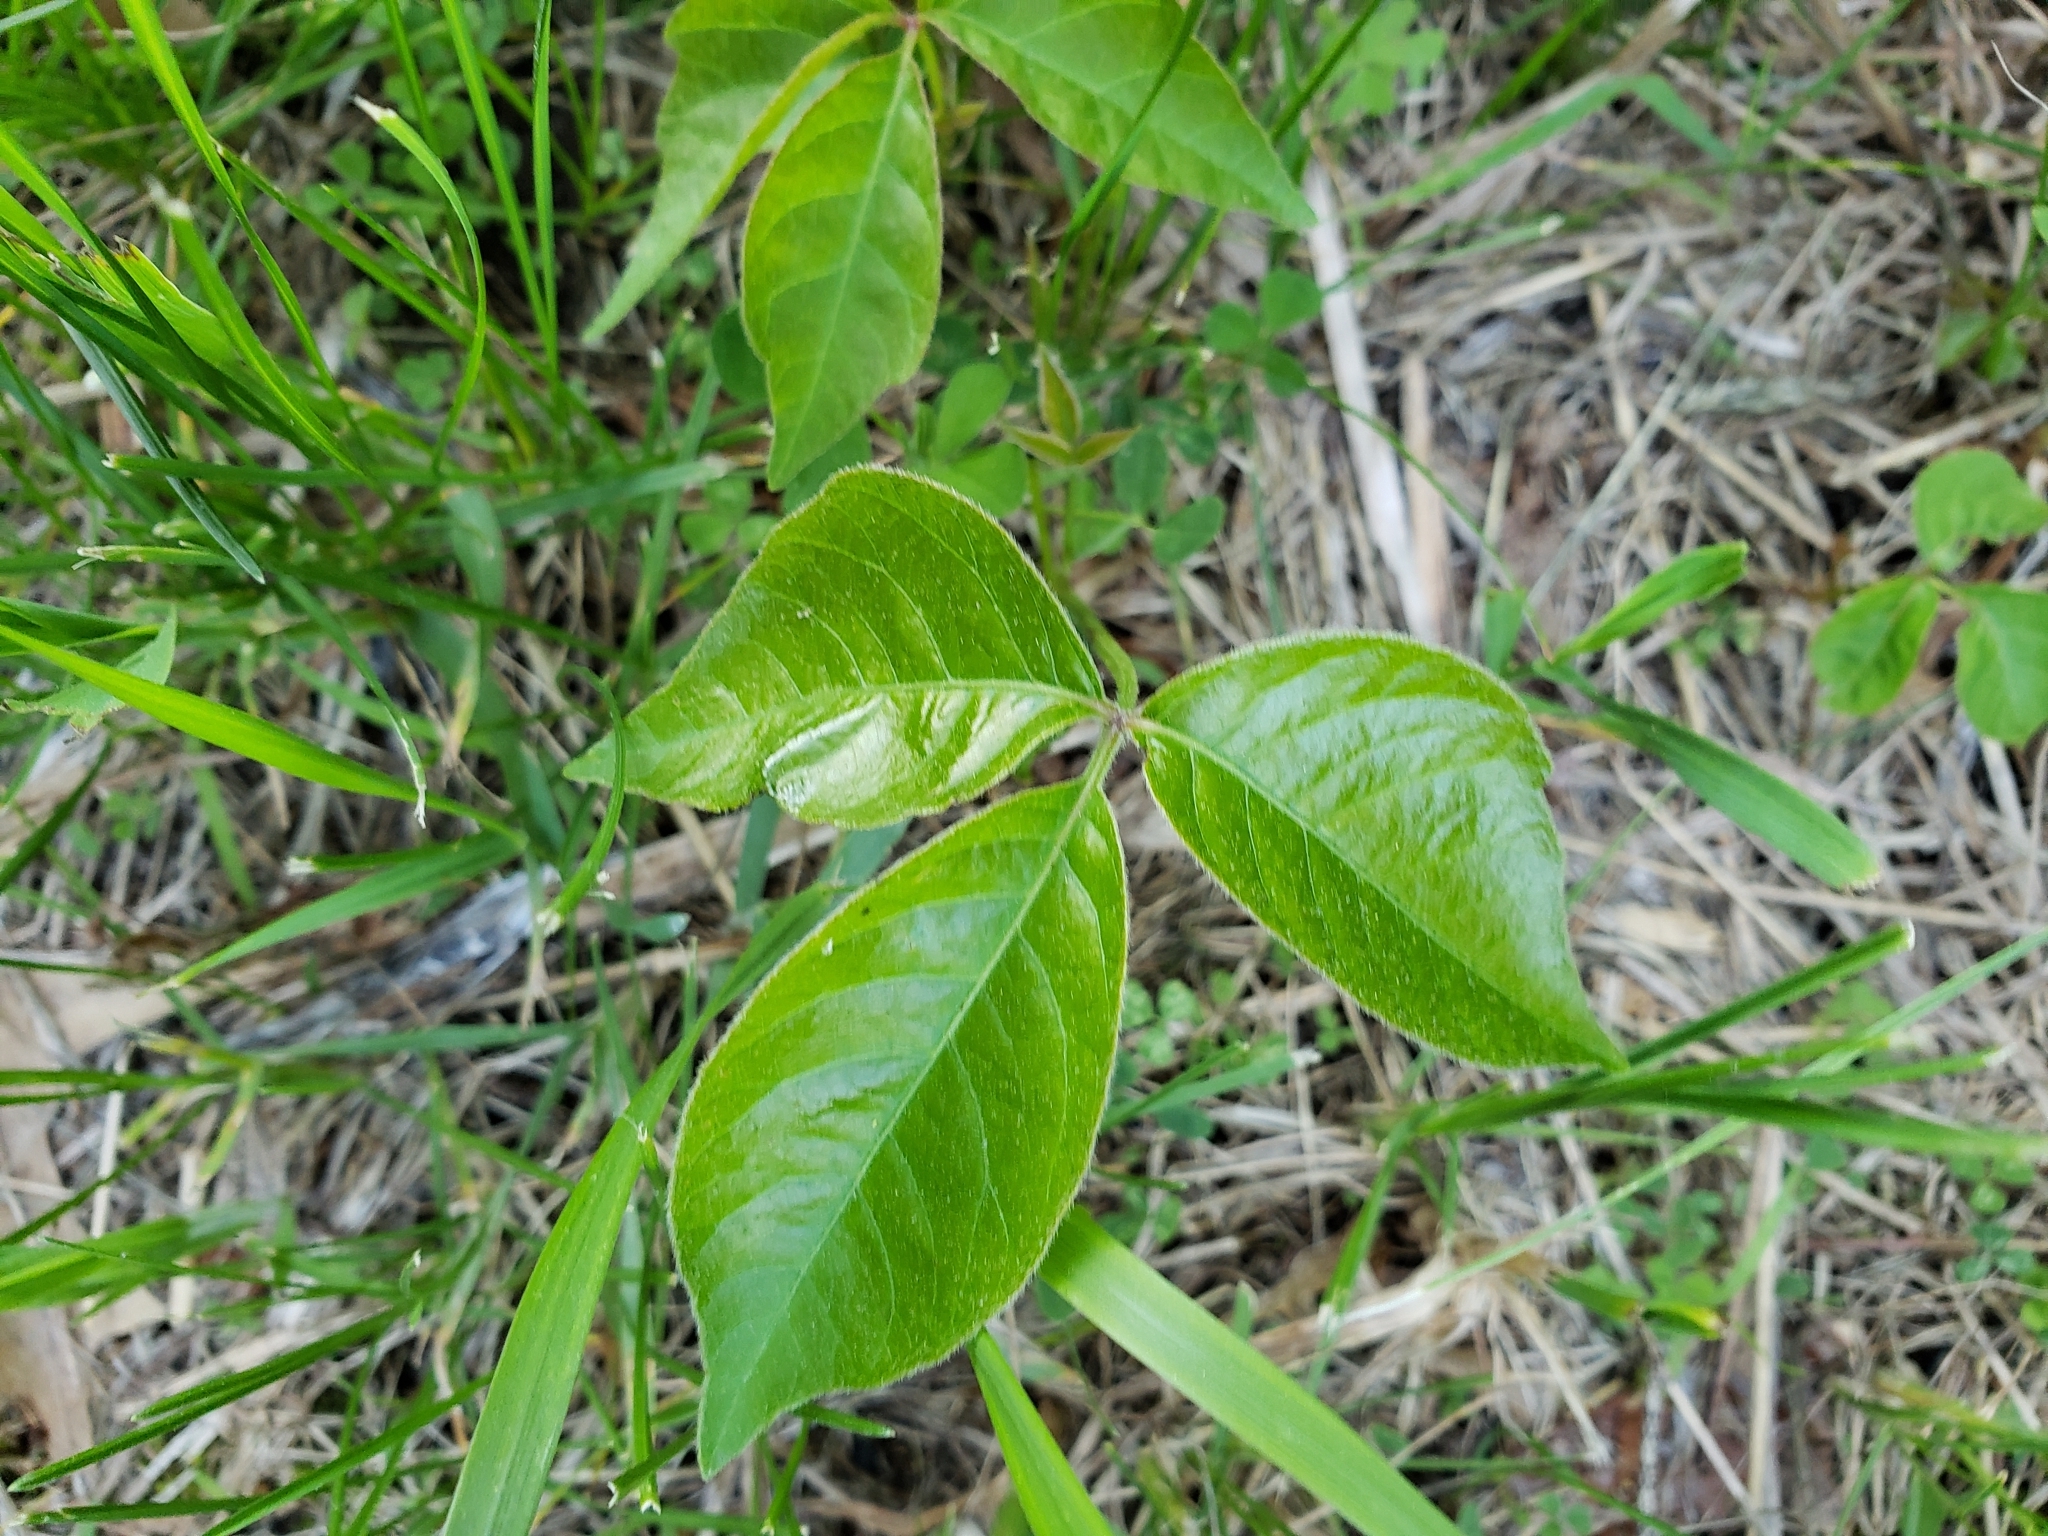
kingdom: Plantae
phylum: Tracheophyta
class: Magnoliopsida
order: Sapindales
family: Anacardiaceae
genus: Toxicodendron
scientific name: Toxicodendron rydbergii
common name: Rydberg's poison-ivy
